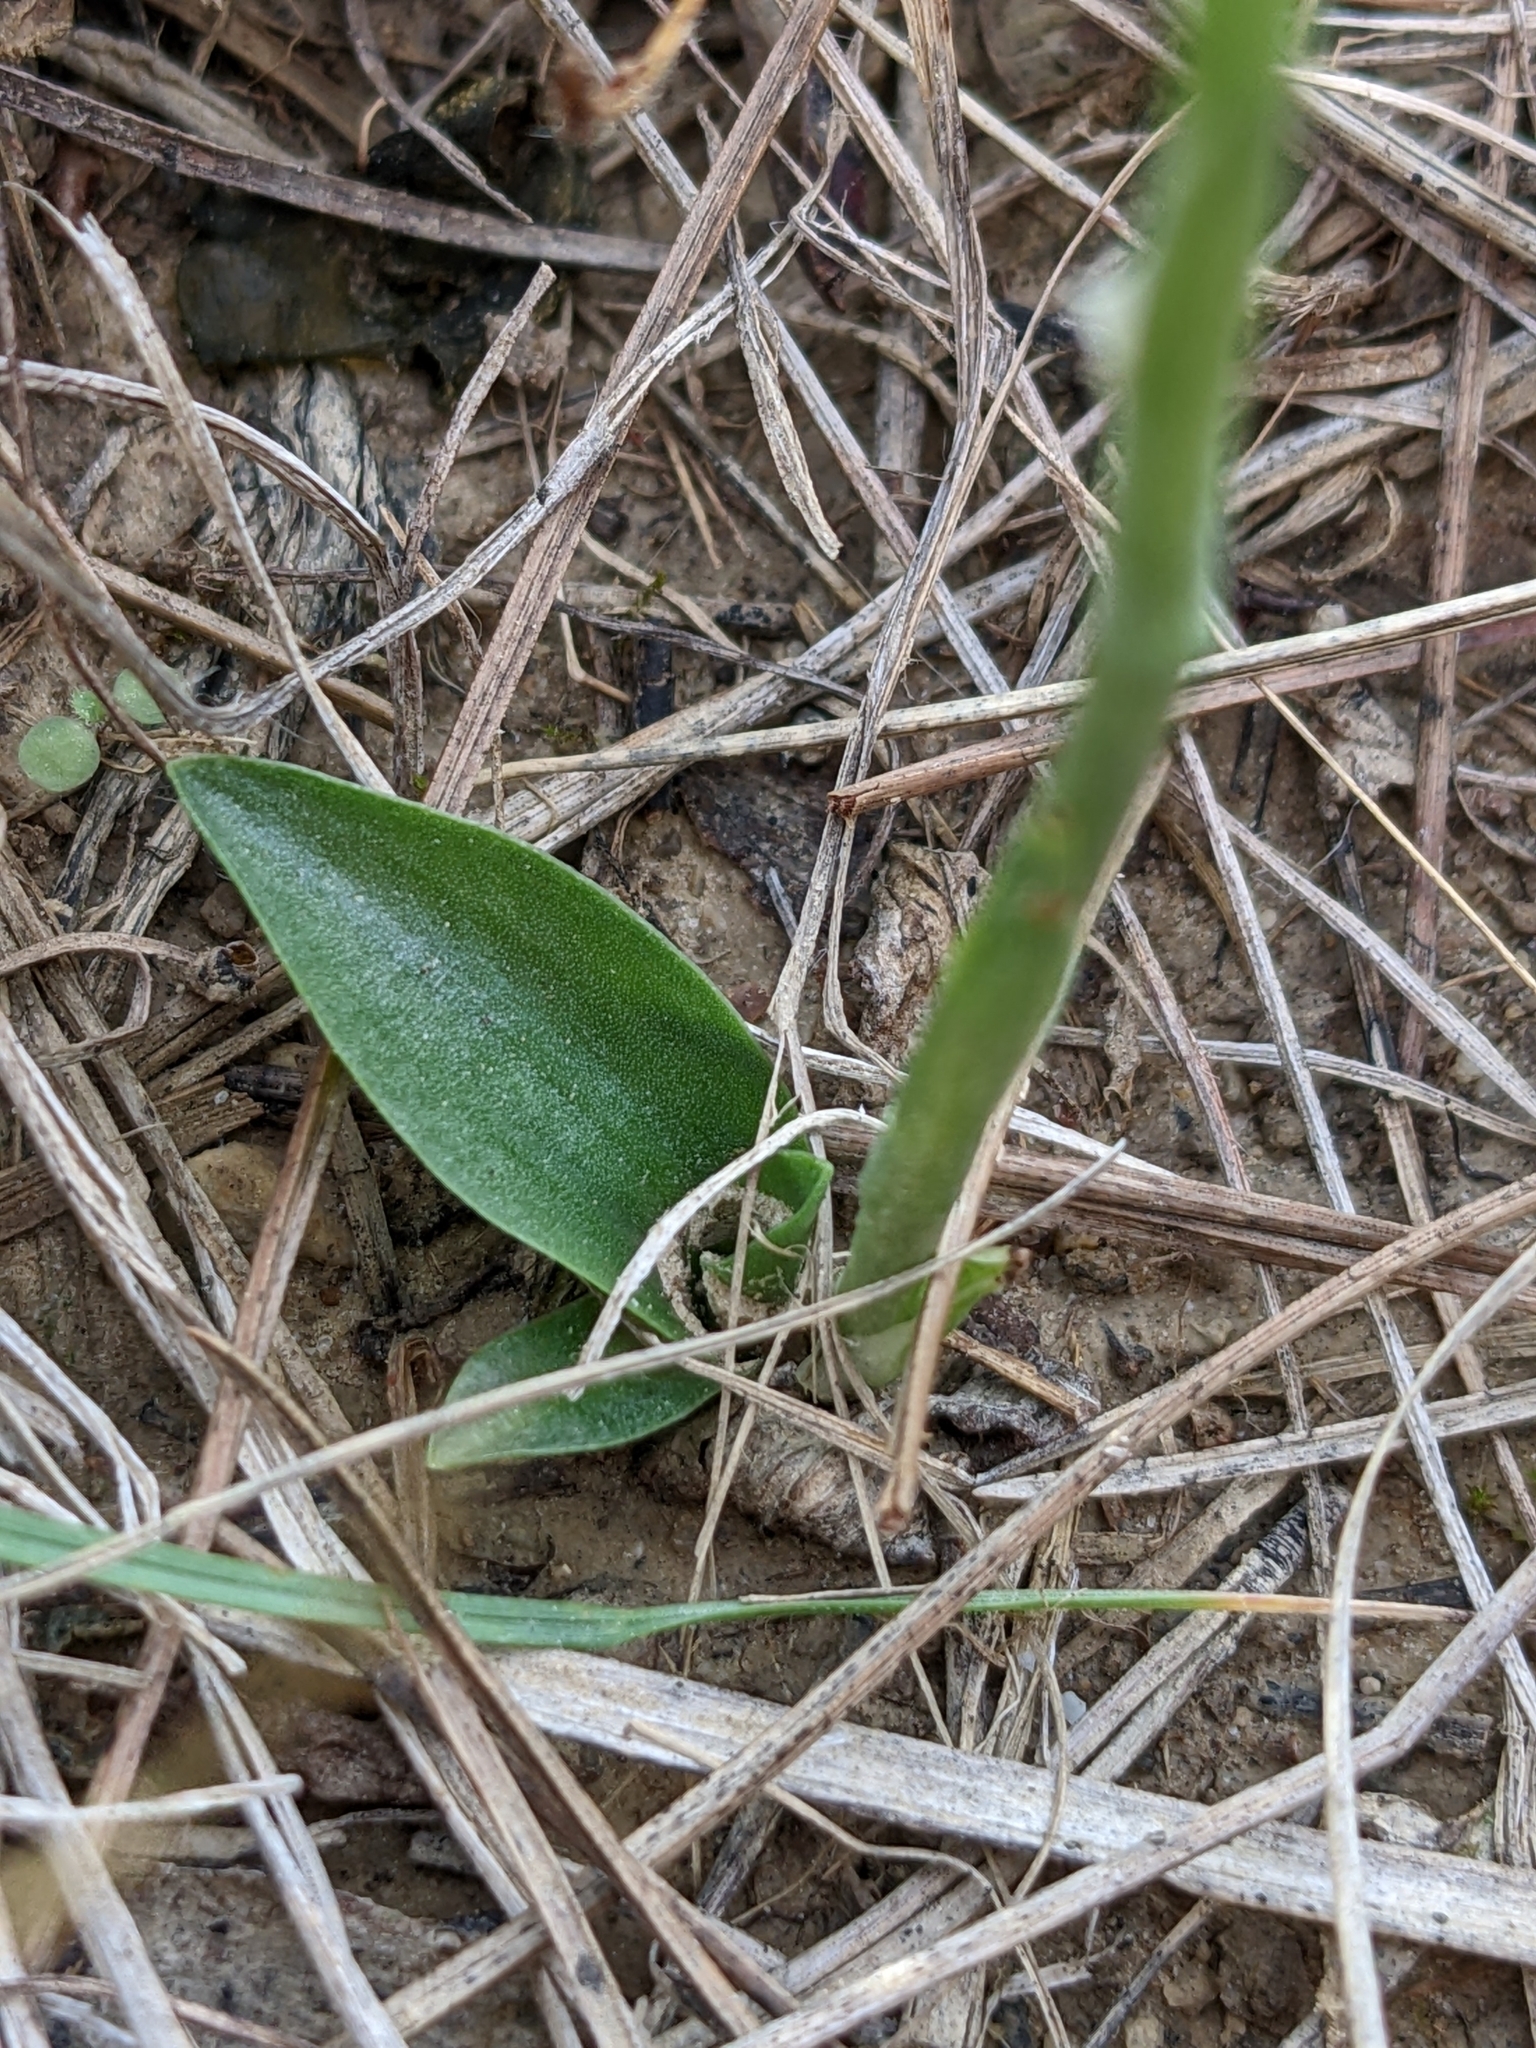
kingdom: Plantae
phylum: Tracheophyta
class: Liliopsida
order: Asparagales
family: Orchidaceae
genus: Spiranthes
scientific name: Spiranthes spiralis
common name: Autumn lady's-tresses
